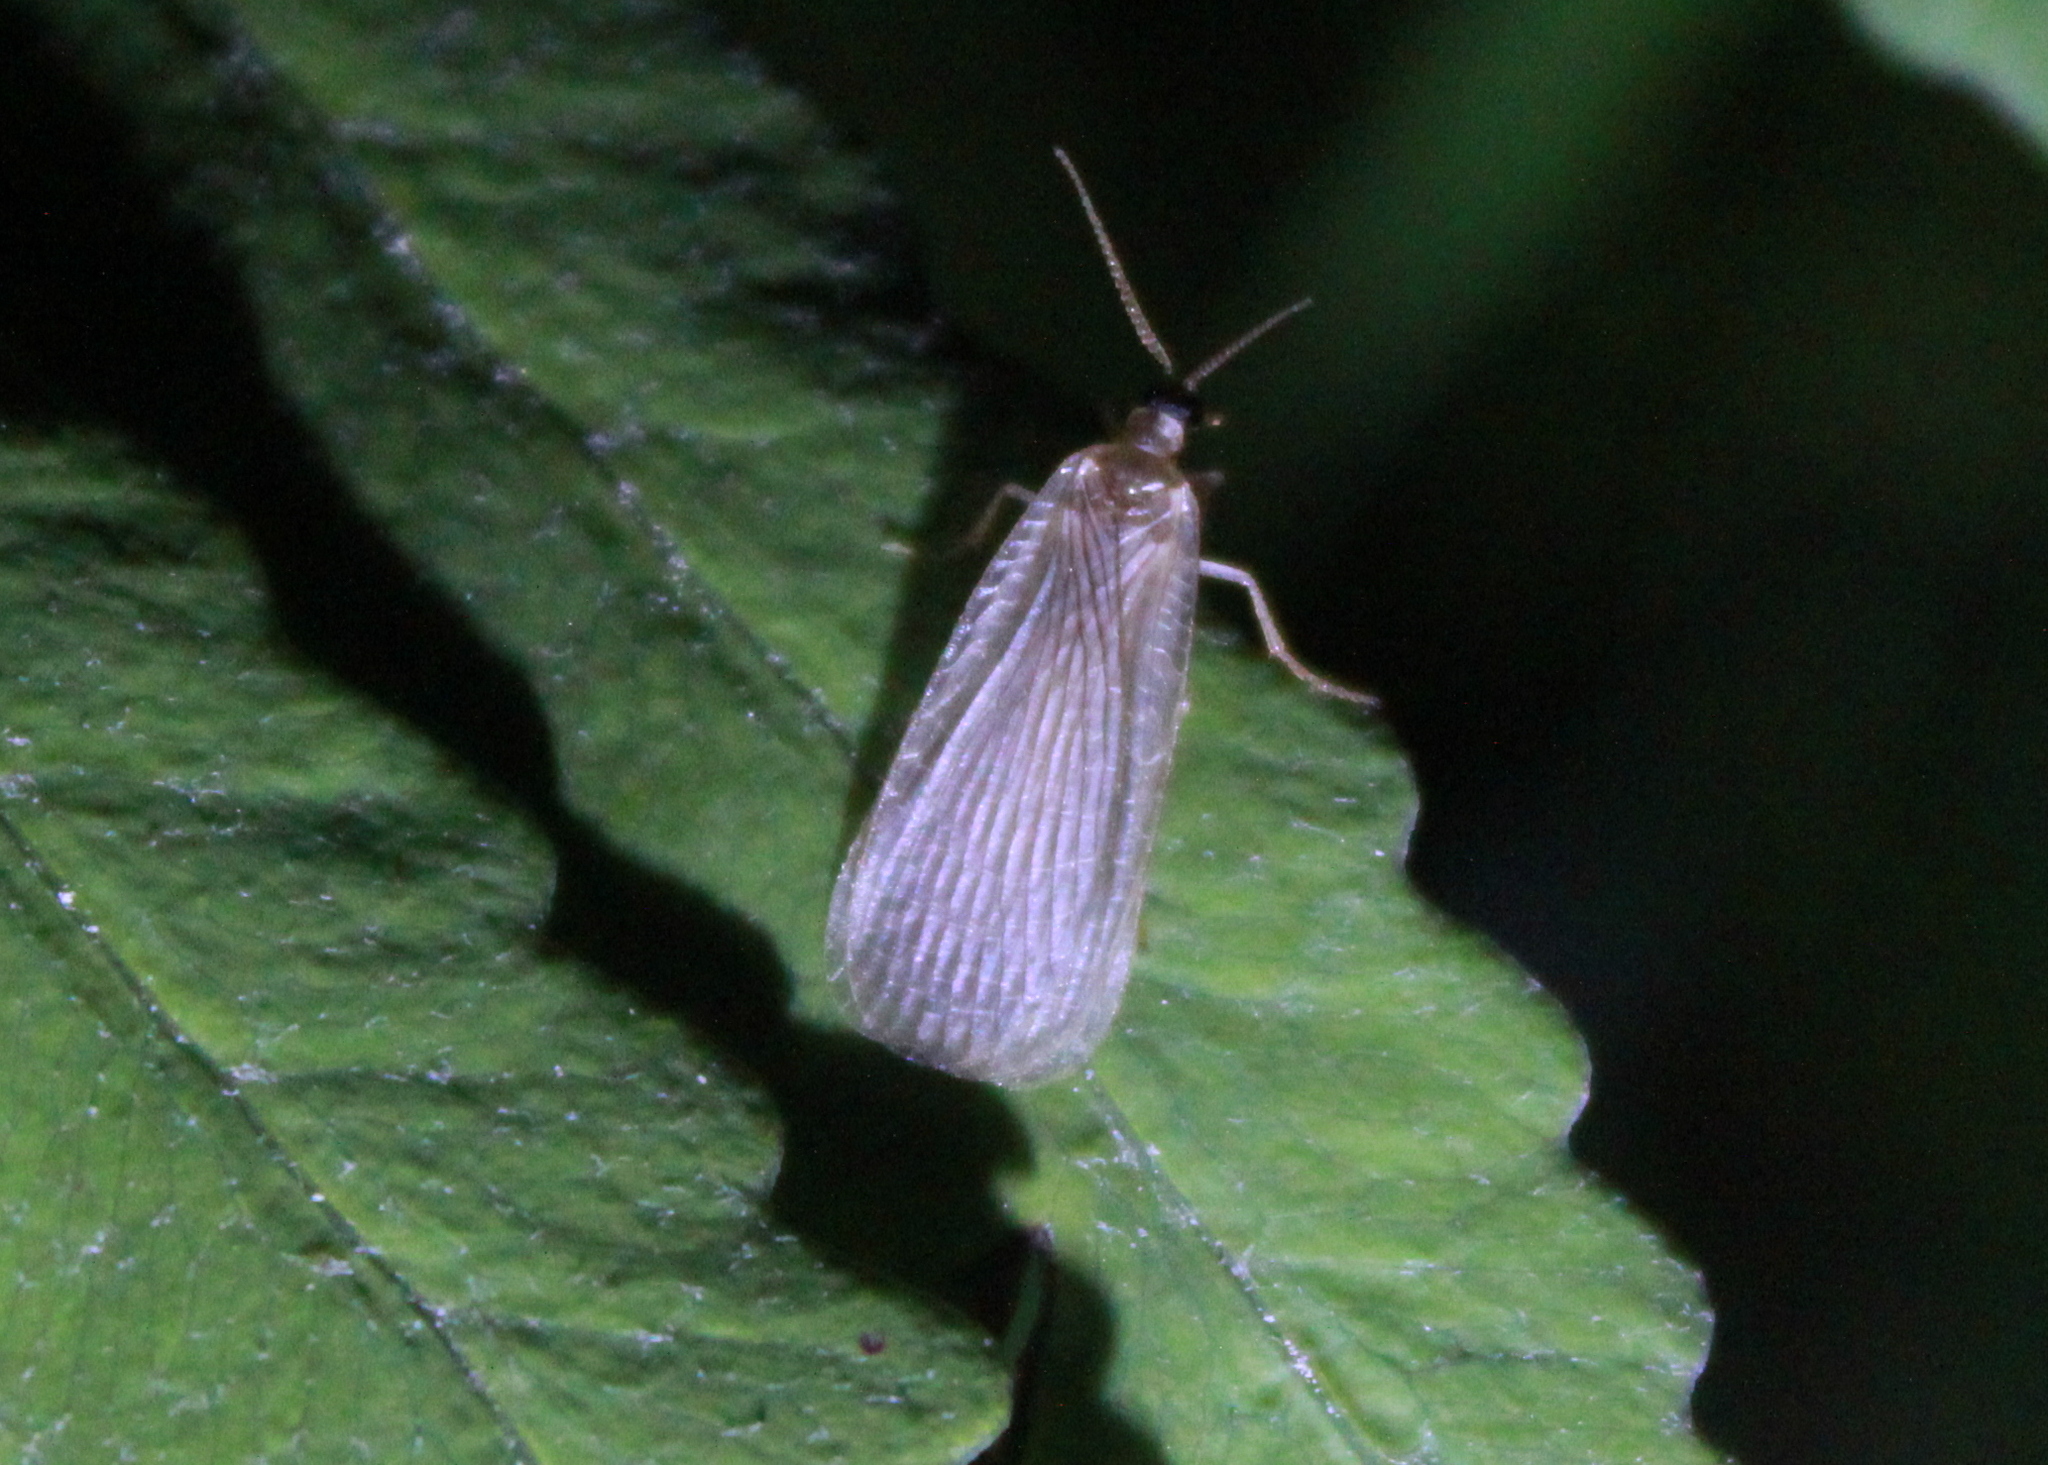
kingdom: Animalia
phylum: Arthropoda
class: Insecta
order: Mecoptera
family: Meropeidae
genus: Merope
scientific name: Merope tuber
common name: Forcepfly
